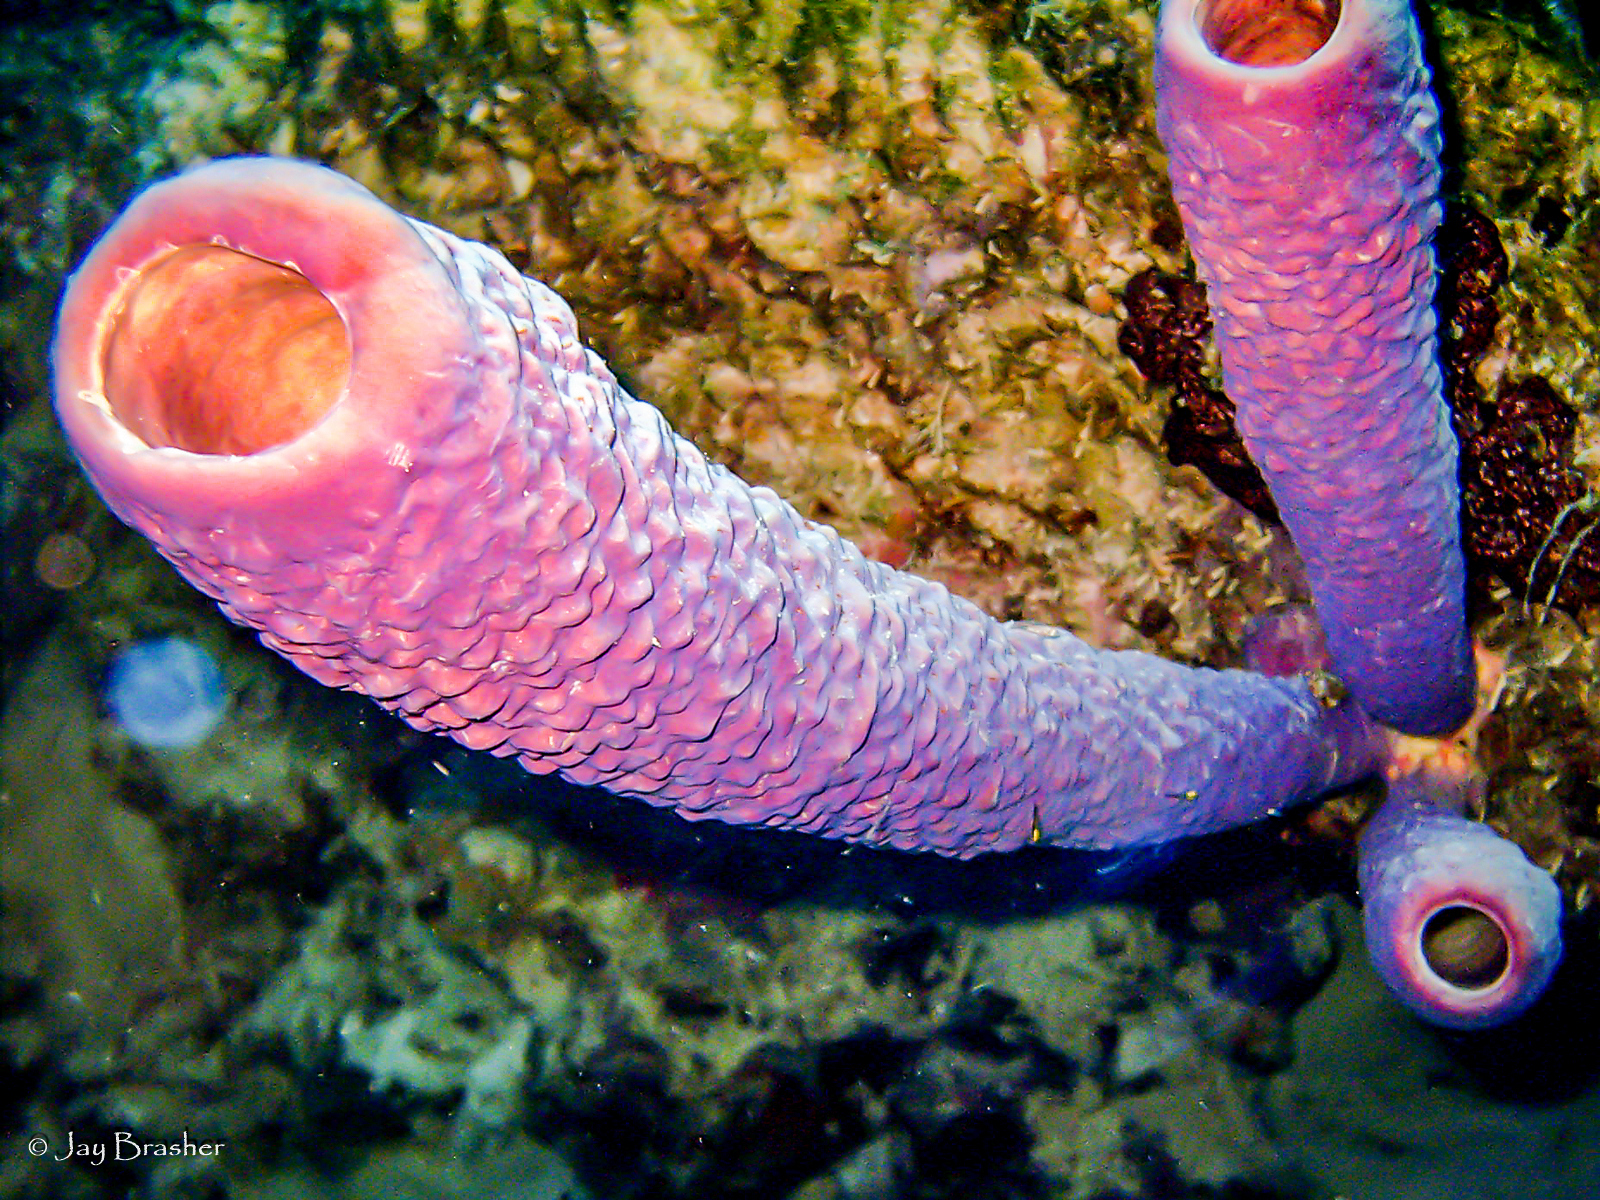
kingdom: Animalia
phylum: Porifera
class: Demospongiae
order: Verongiida
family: Aplysinidae
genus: Aplysina
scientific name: Aplysina archeri
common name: Stove-pipe sponge
